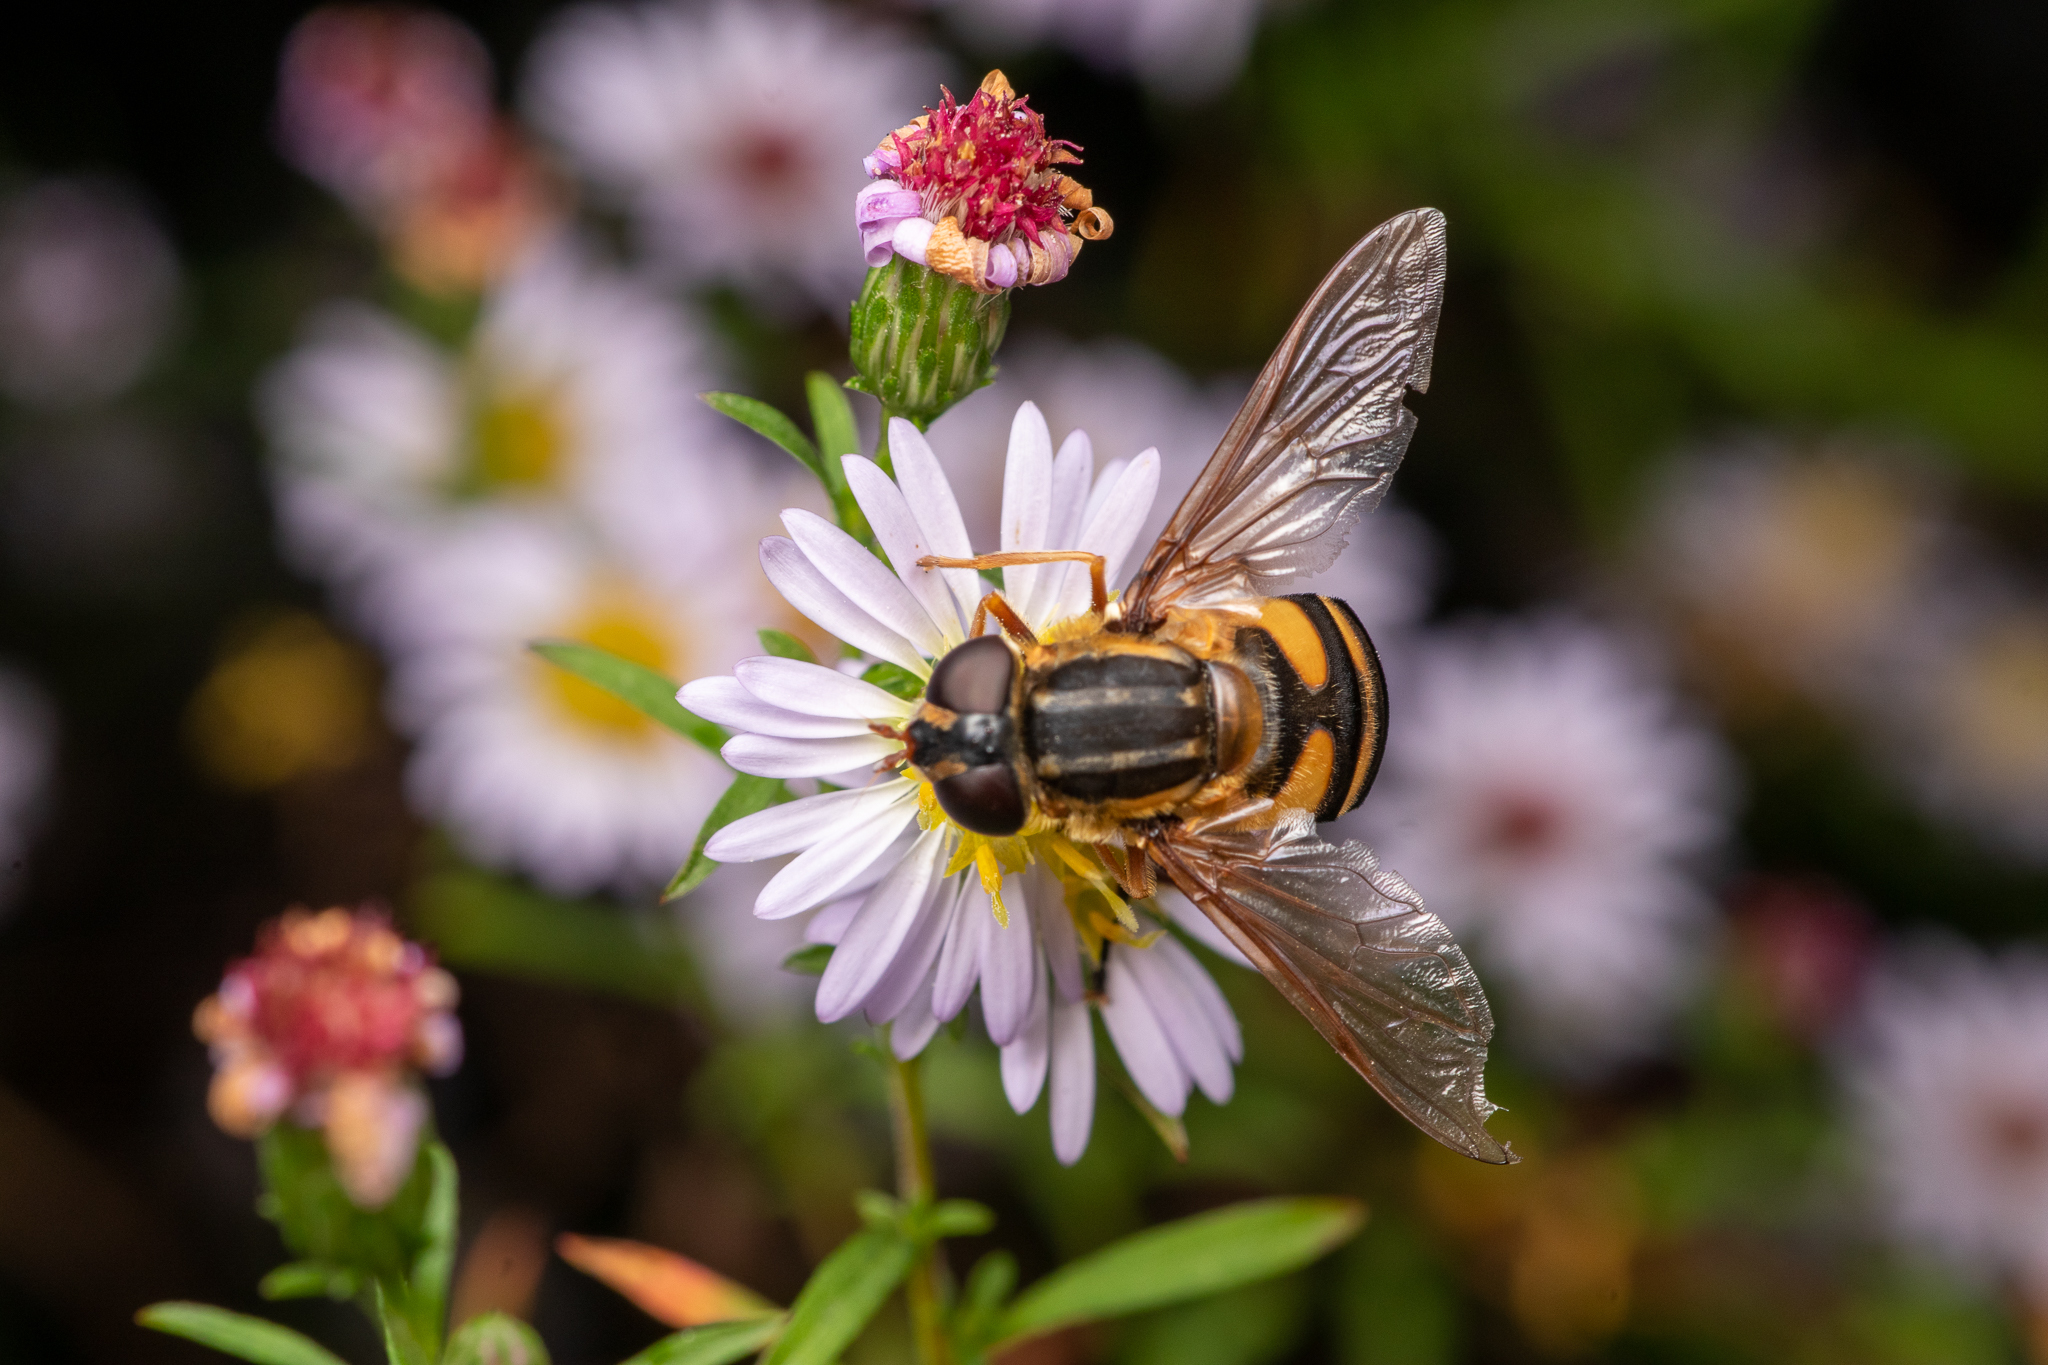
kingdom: Animalia
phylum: Arthropoda
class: Insecta
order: Diptera
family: Syrphidae
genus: Helophilus
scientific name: Helophilus fasciatus
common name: Narrow-headed marsh fly
